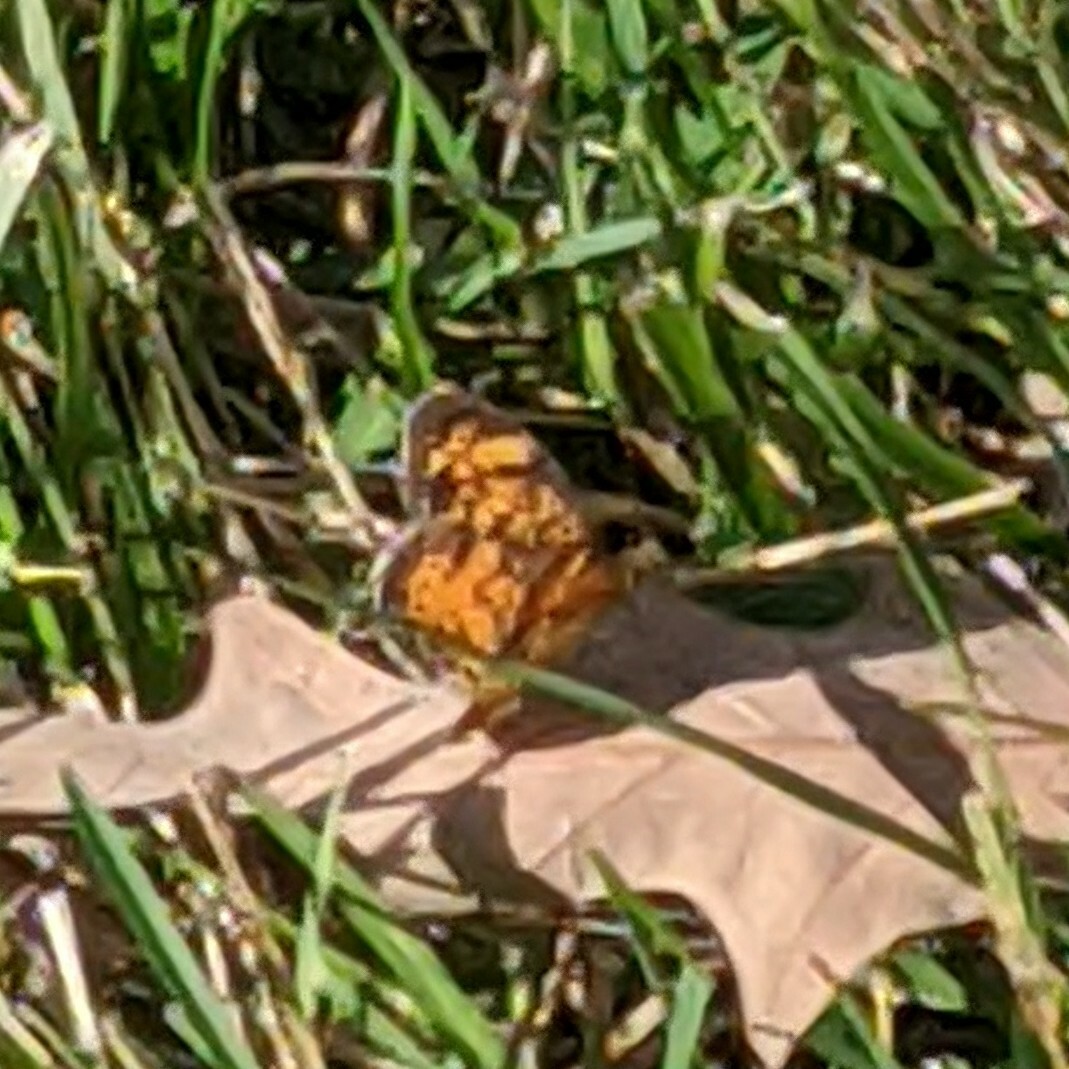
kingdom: Animalia
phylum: Arthropoda
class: Insecta
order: Lepidoptera
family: Nymphalidae
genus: Phyciodes
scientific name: Phyciodes tharos
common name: Pearl crescent
